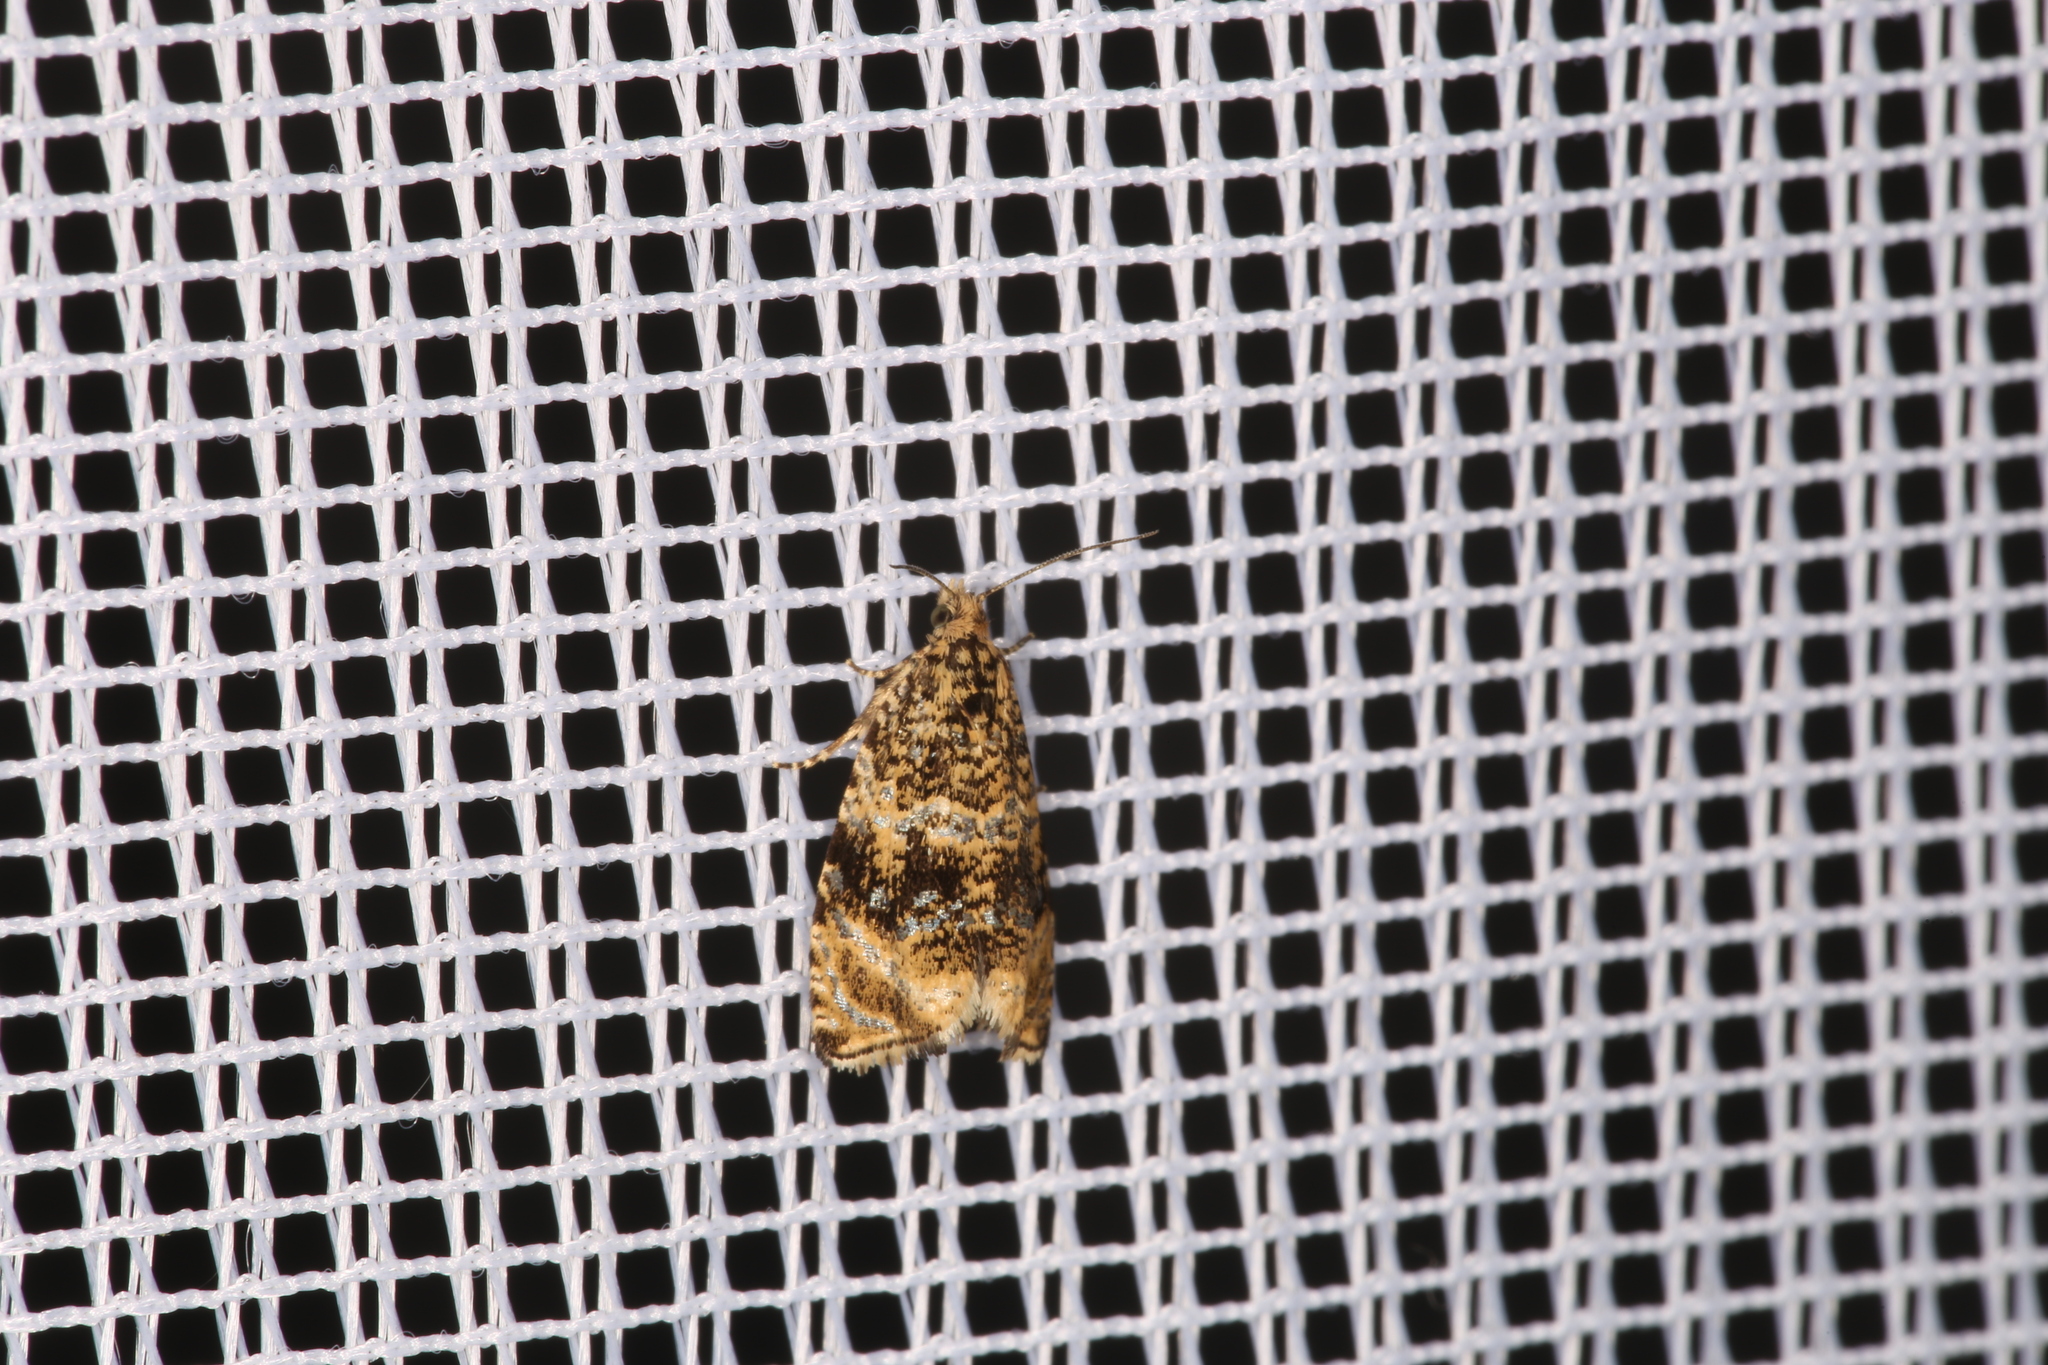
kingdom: Animalia
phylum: Arthropoda
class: Insecta
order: Lepidoptera
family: Tortricidae
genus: Syricoris
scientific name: Syricoris lacunana
